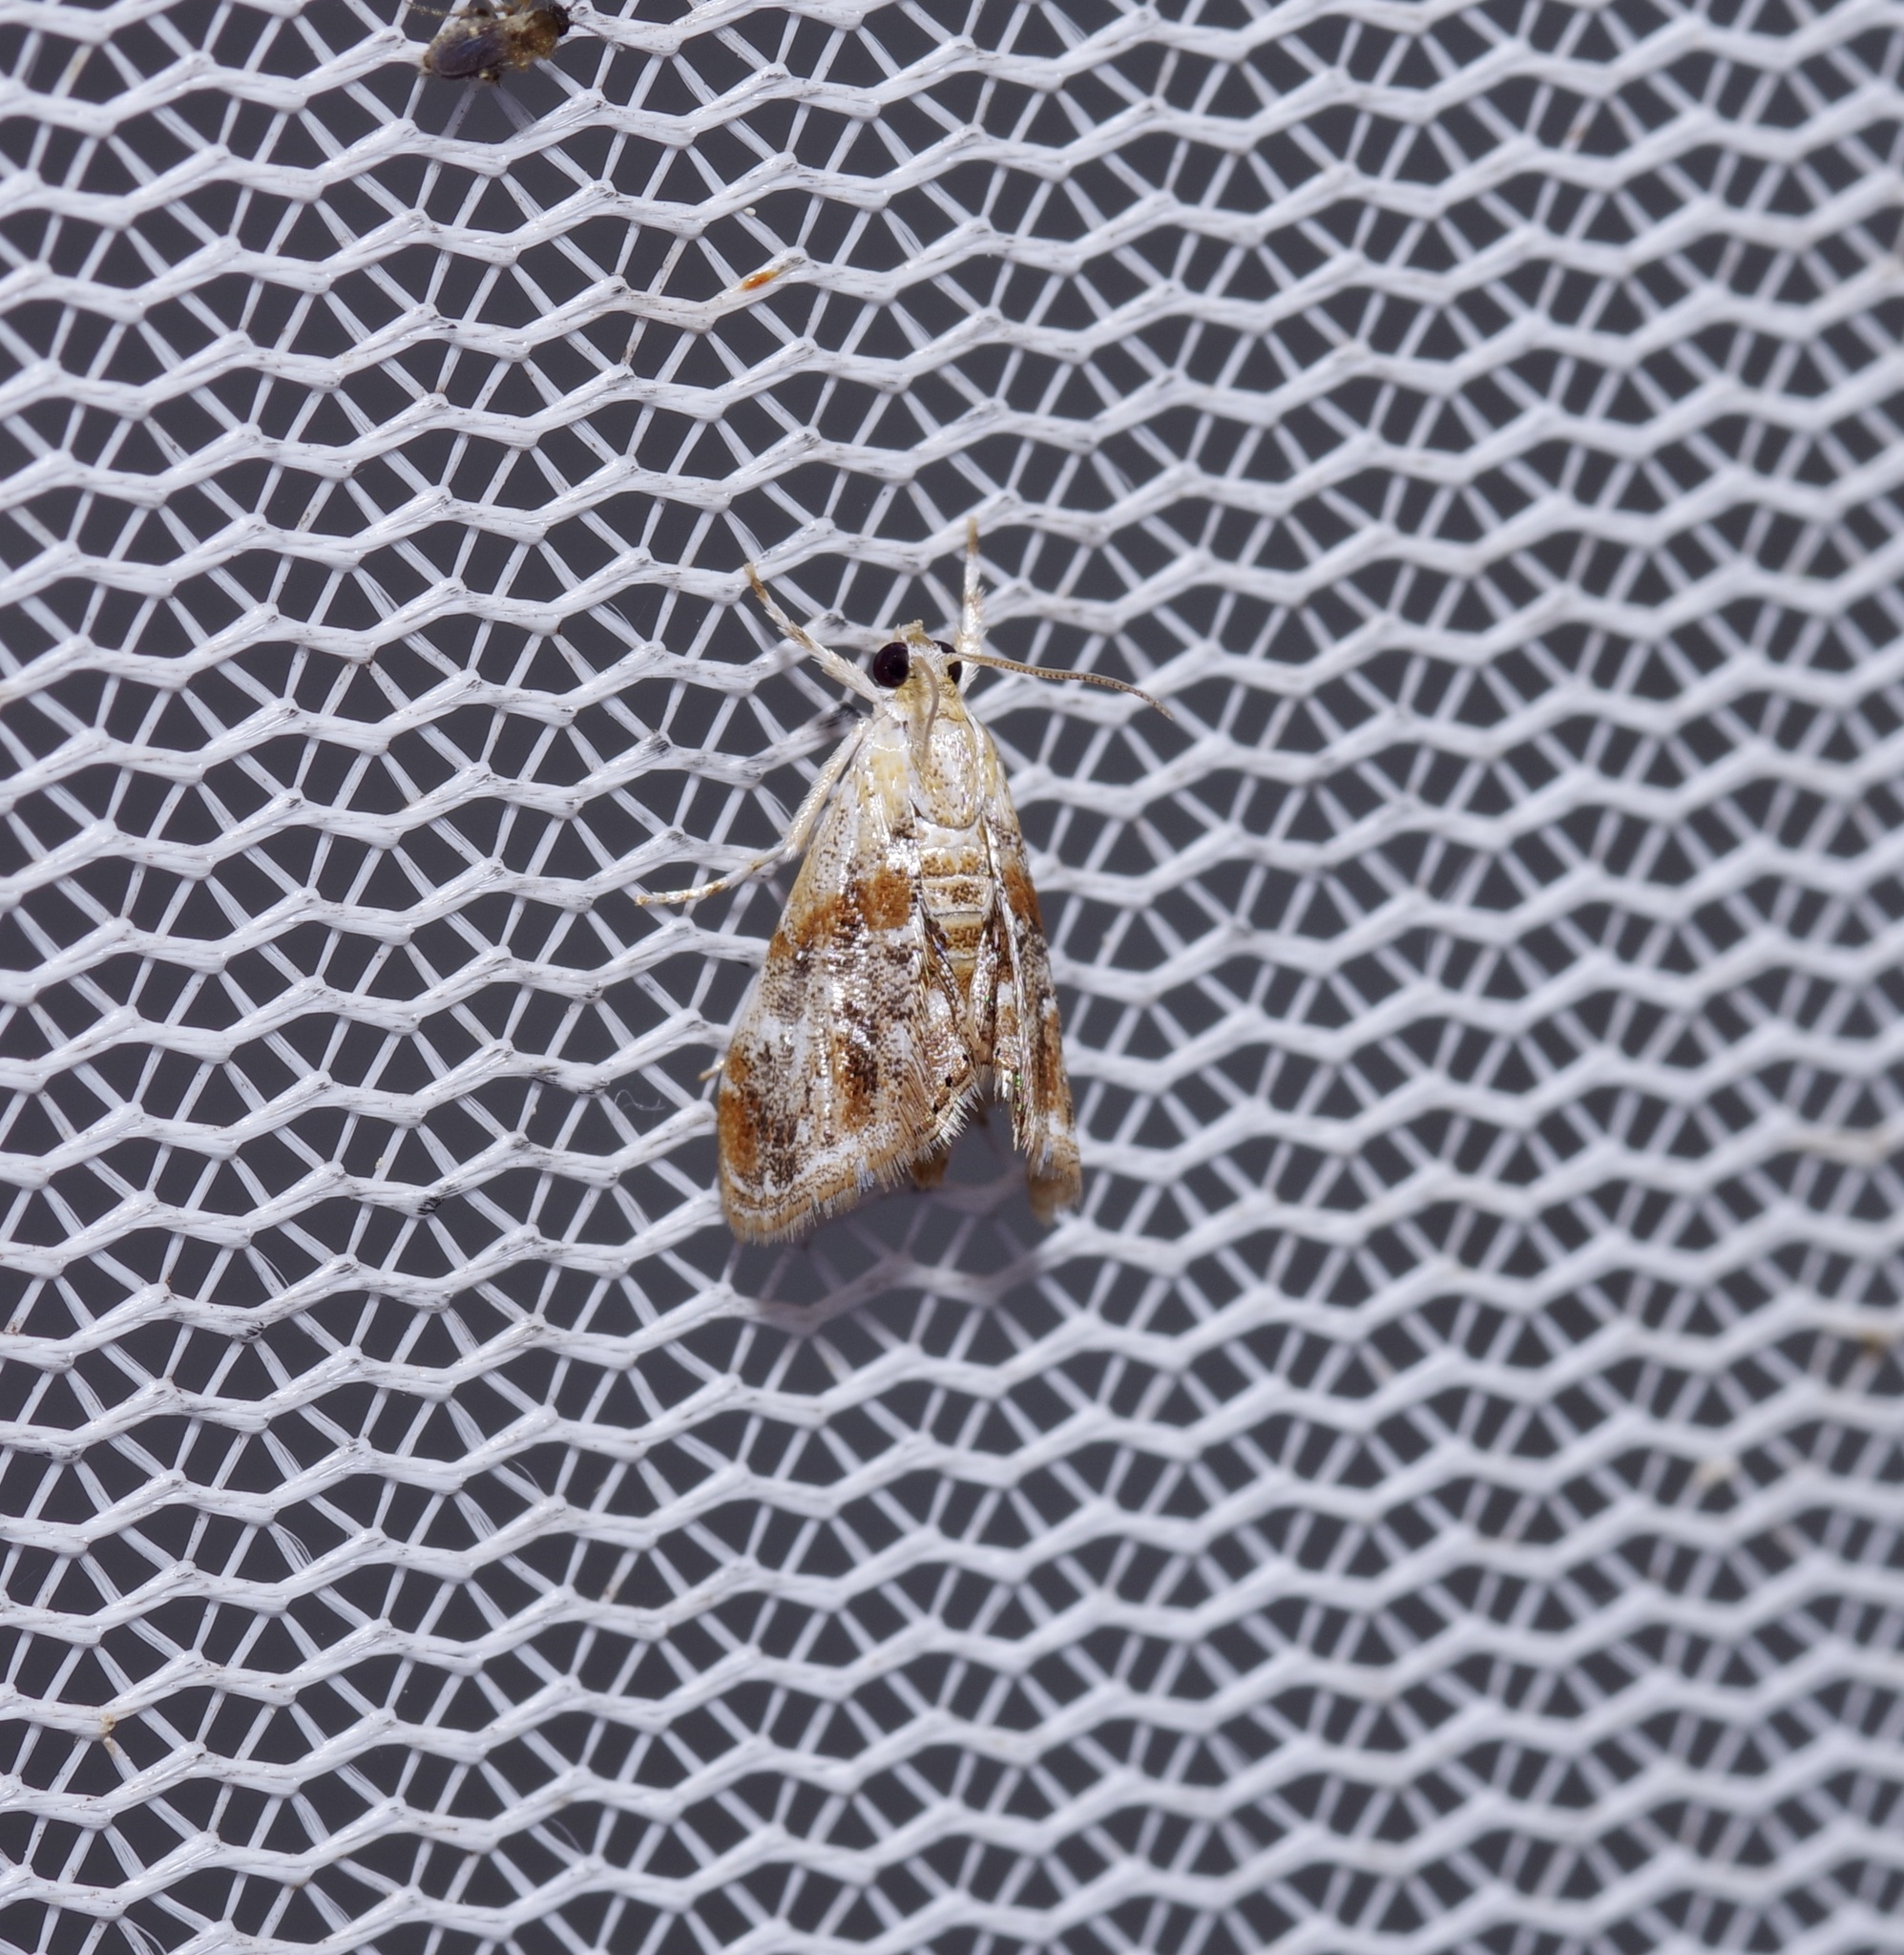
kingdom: Animalia
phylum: Arthropoda
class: Insecta
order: Lepidoptera
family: Crambidae
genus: Dicymolomia
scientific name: Dicymolomia julianalis
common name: Julia's dicymolomia moth
